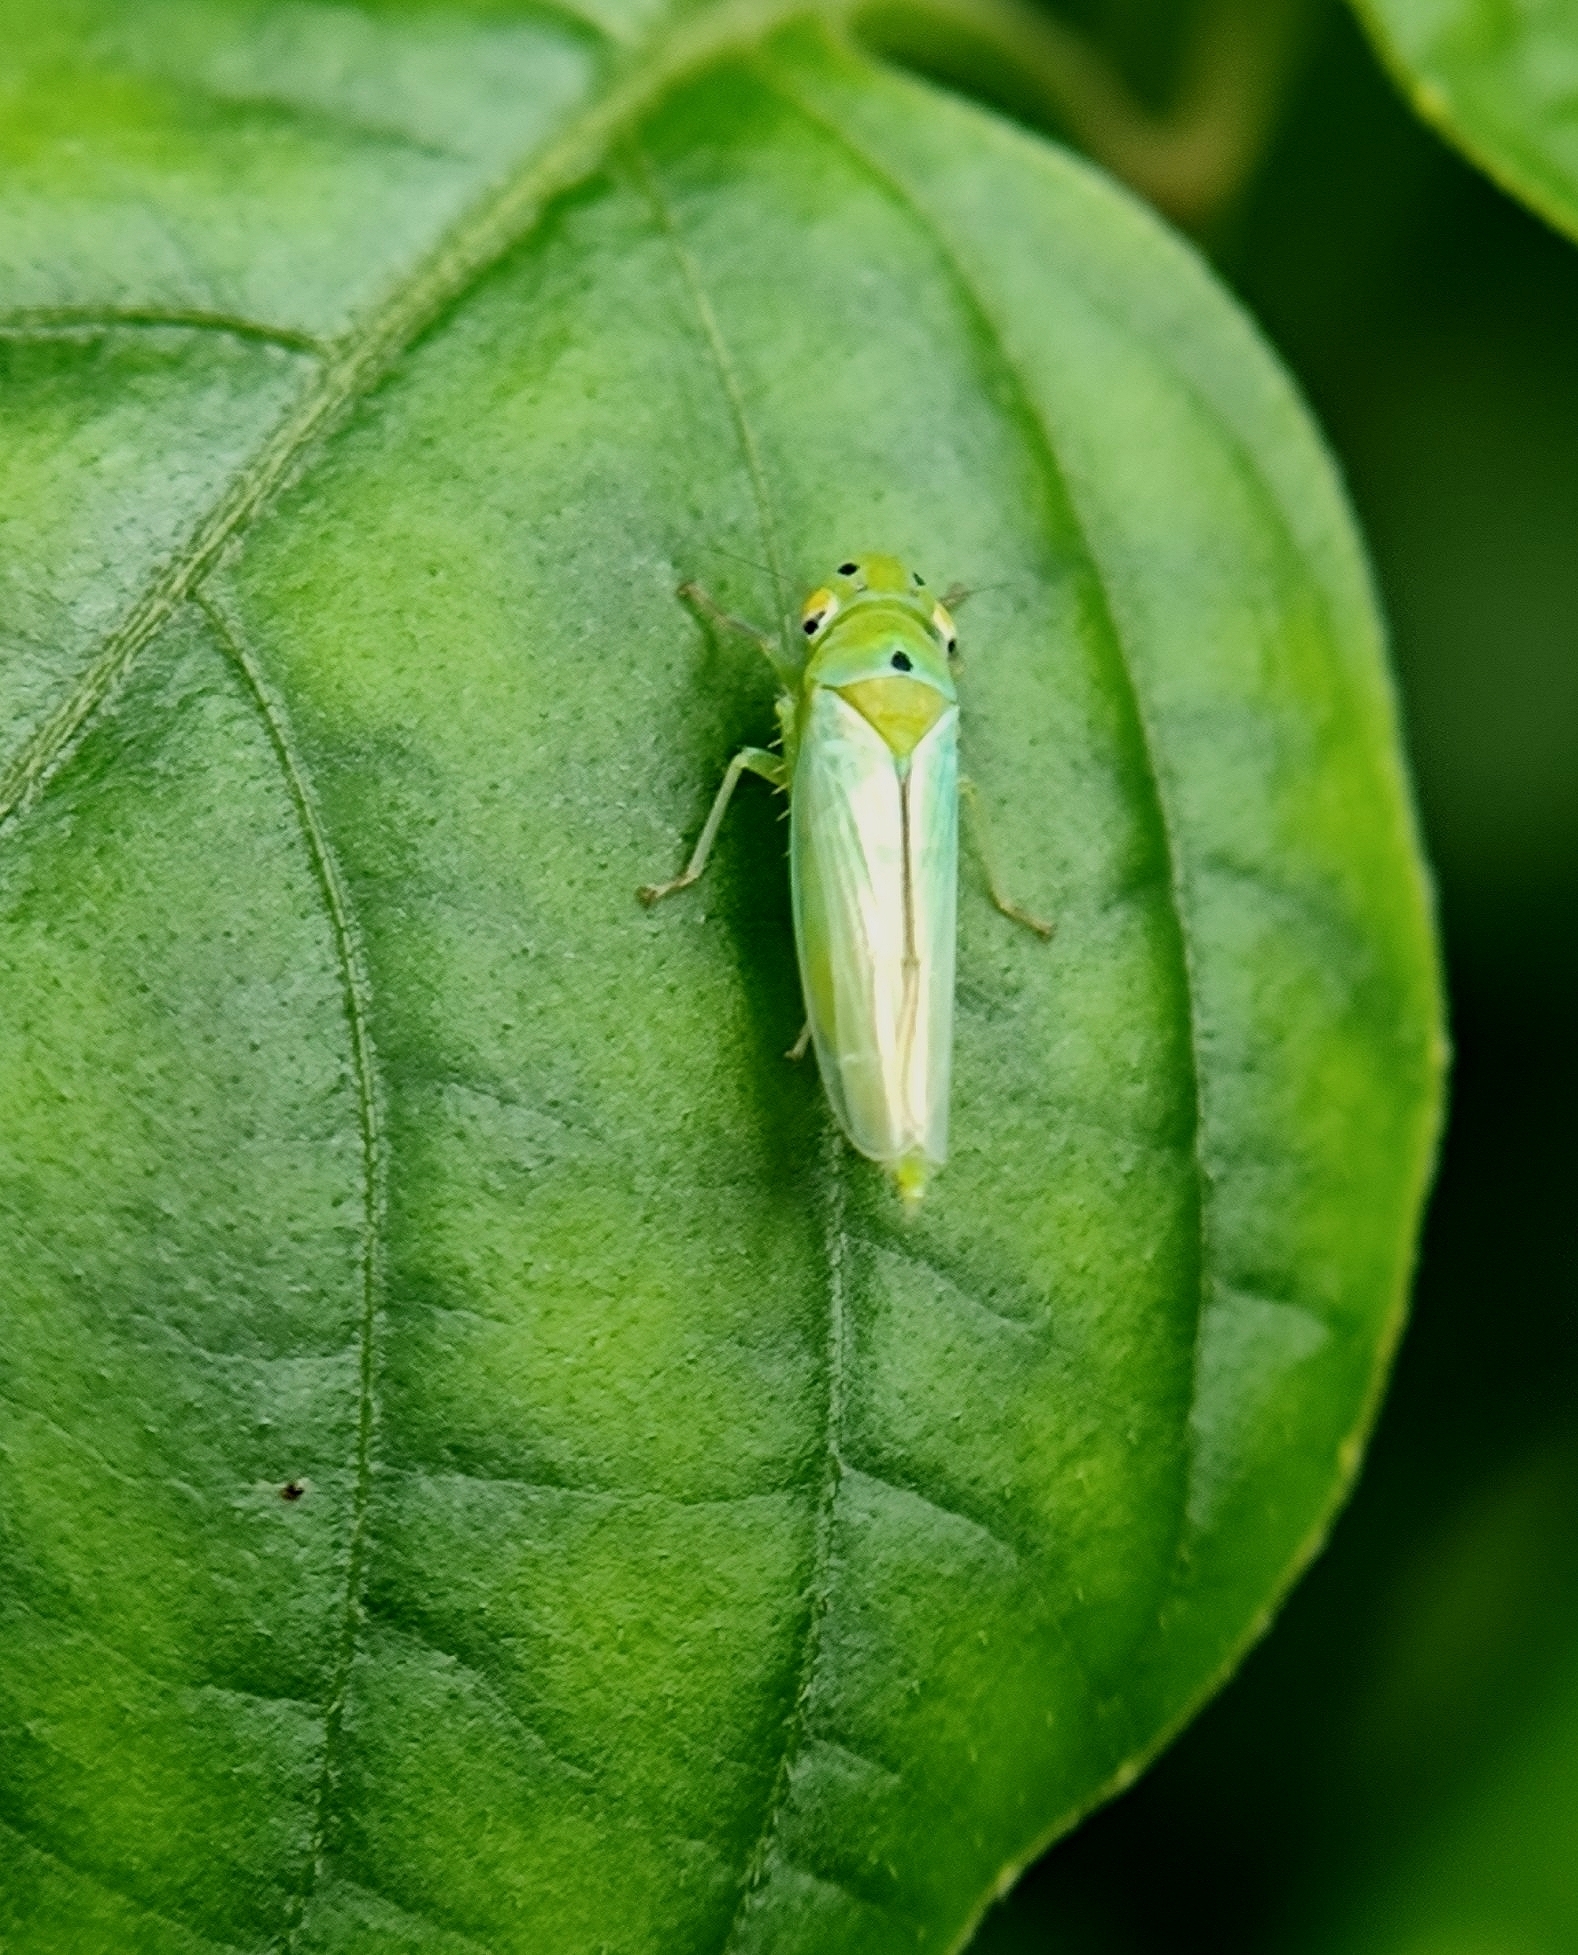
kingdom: Animalia
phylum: Arthropoda
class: Insecta
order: Hemiptera
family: Cicadellidae
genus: Kolla
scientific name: Kolla ceylonica
